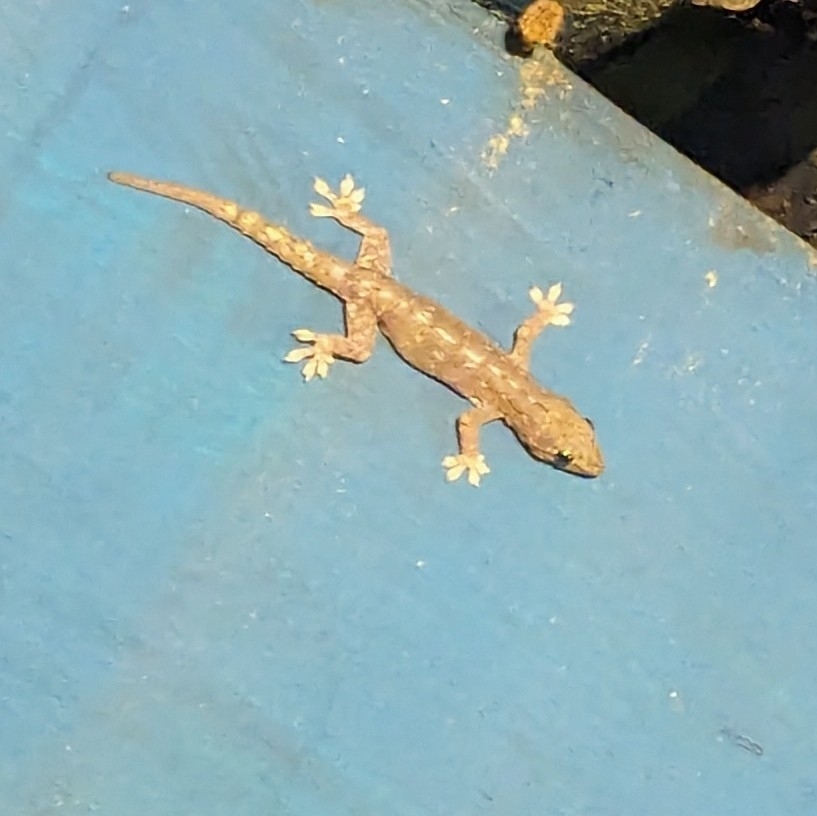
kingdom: Animalia
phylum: Chordata
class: Squamata
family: Gekkonidae
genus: Hemidactylus
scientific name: Hemidactylus frenatus
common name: Common house gecko
